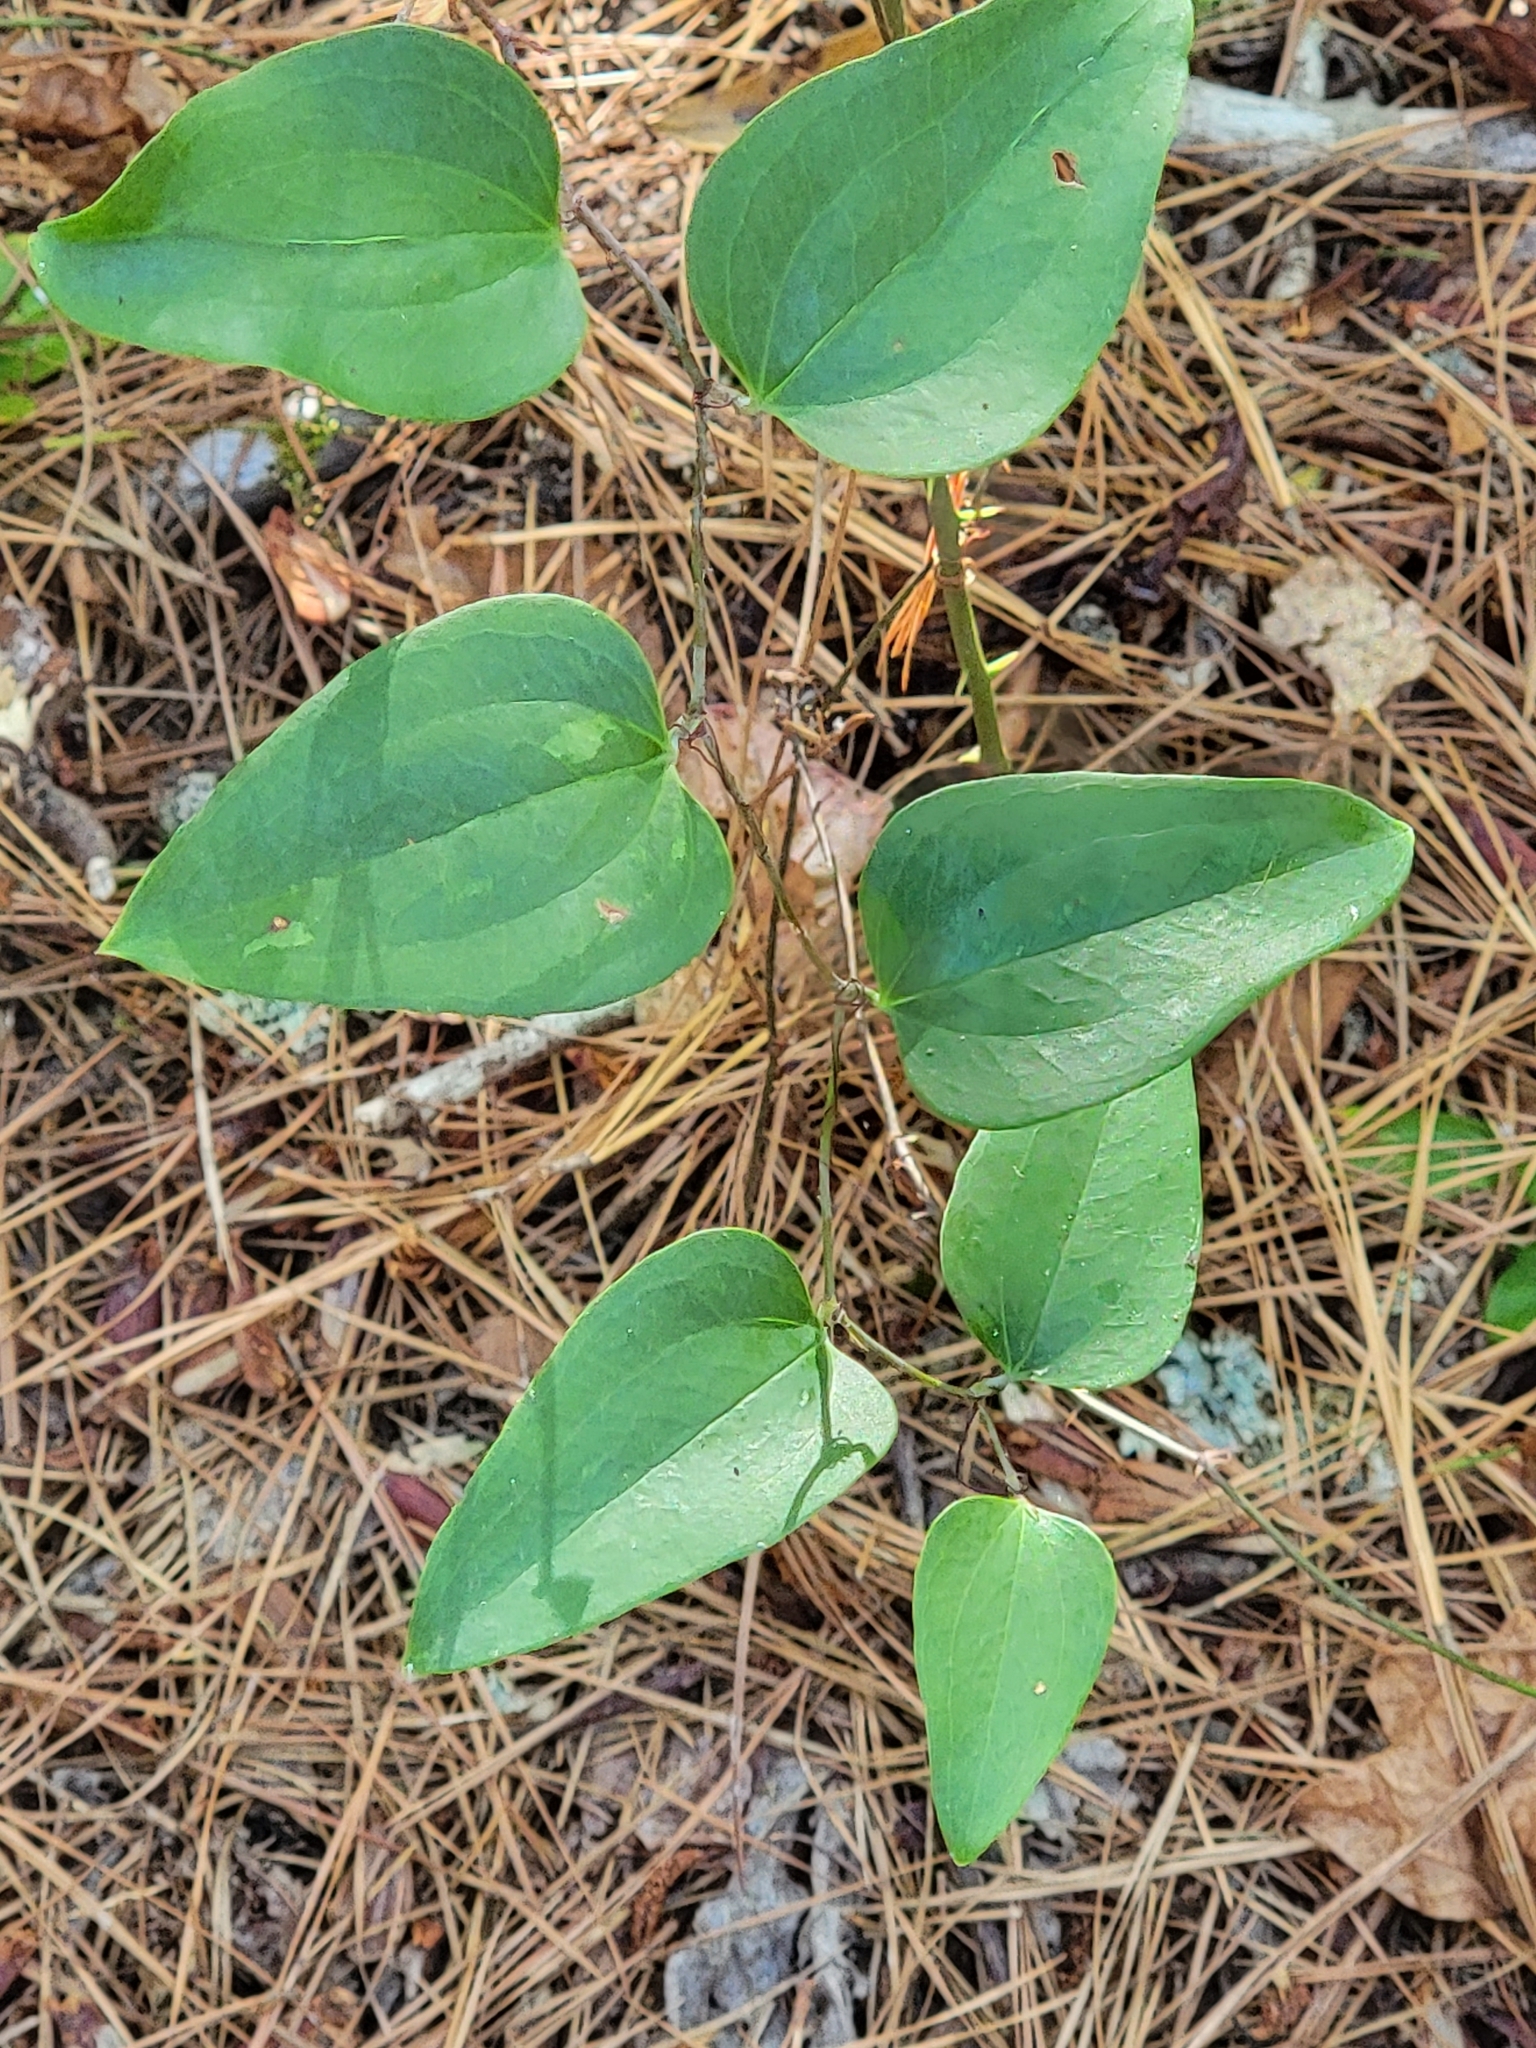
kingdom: Plantae
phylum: Tracheophyta
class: Liliopsida
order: Liliales
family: Smilacaceae
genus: Smilax
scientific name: Smilax glauca
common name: Cat greenbrier
